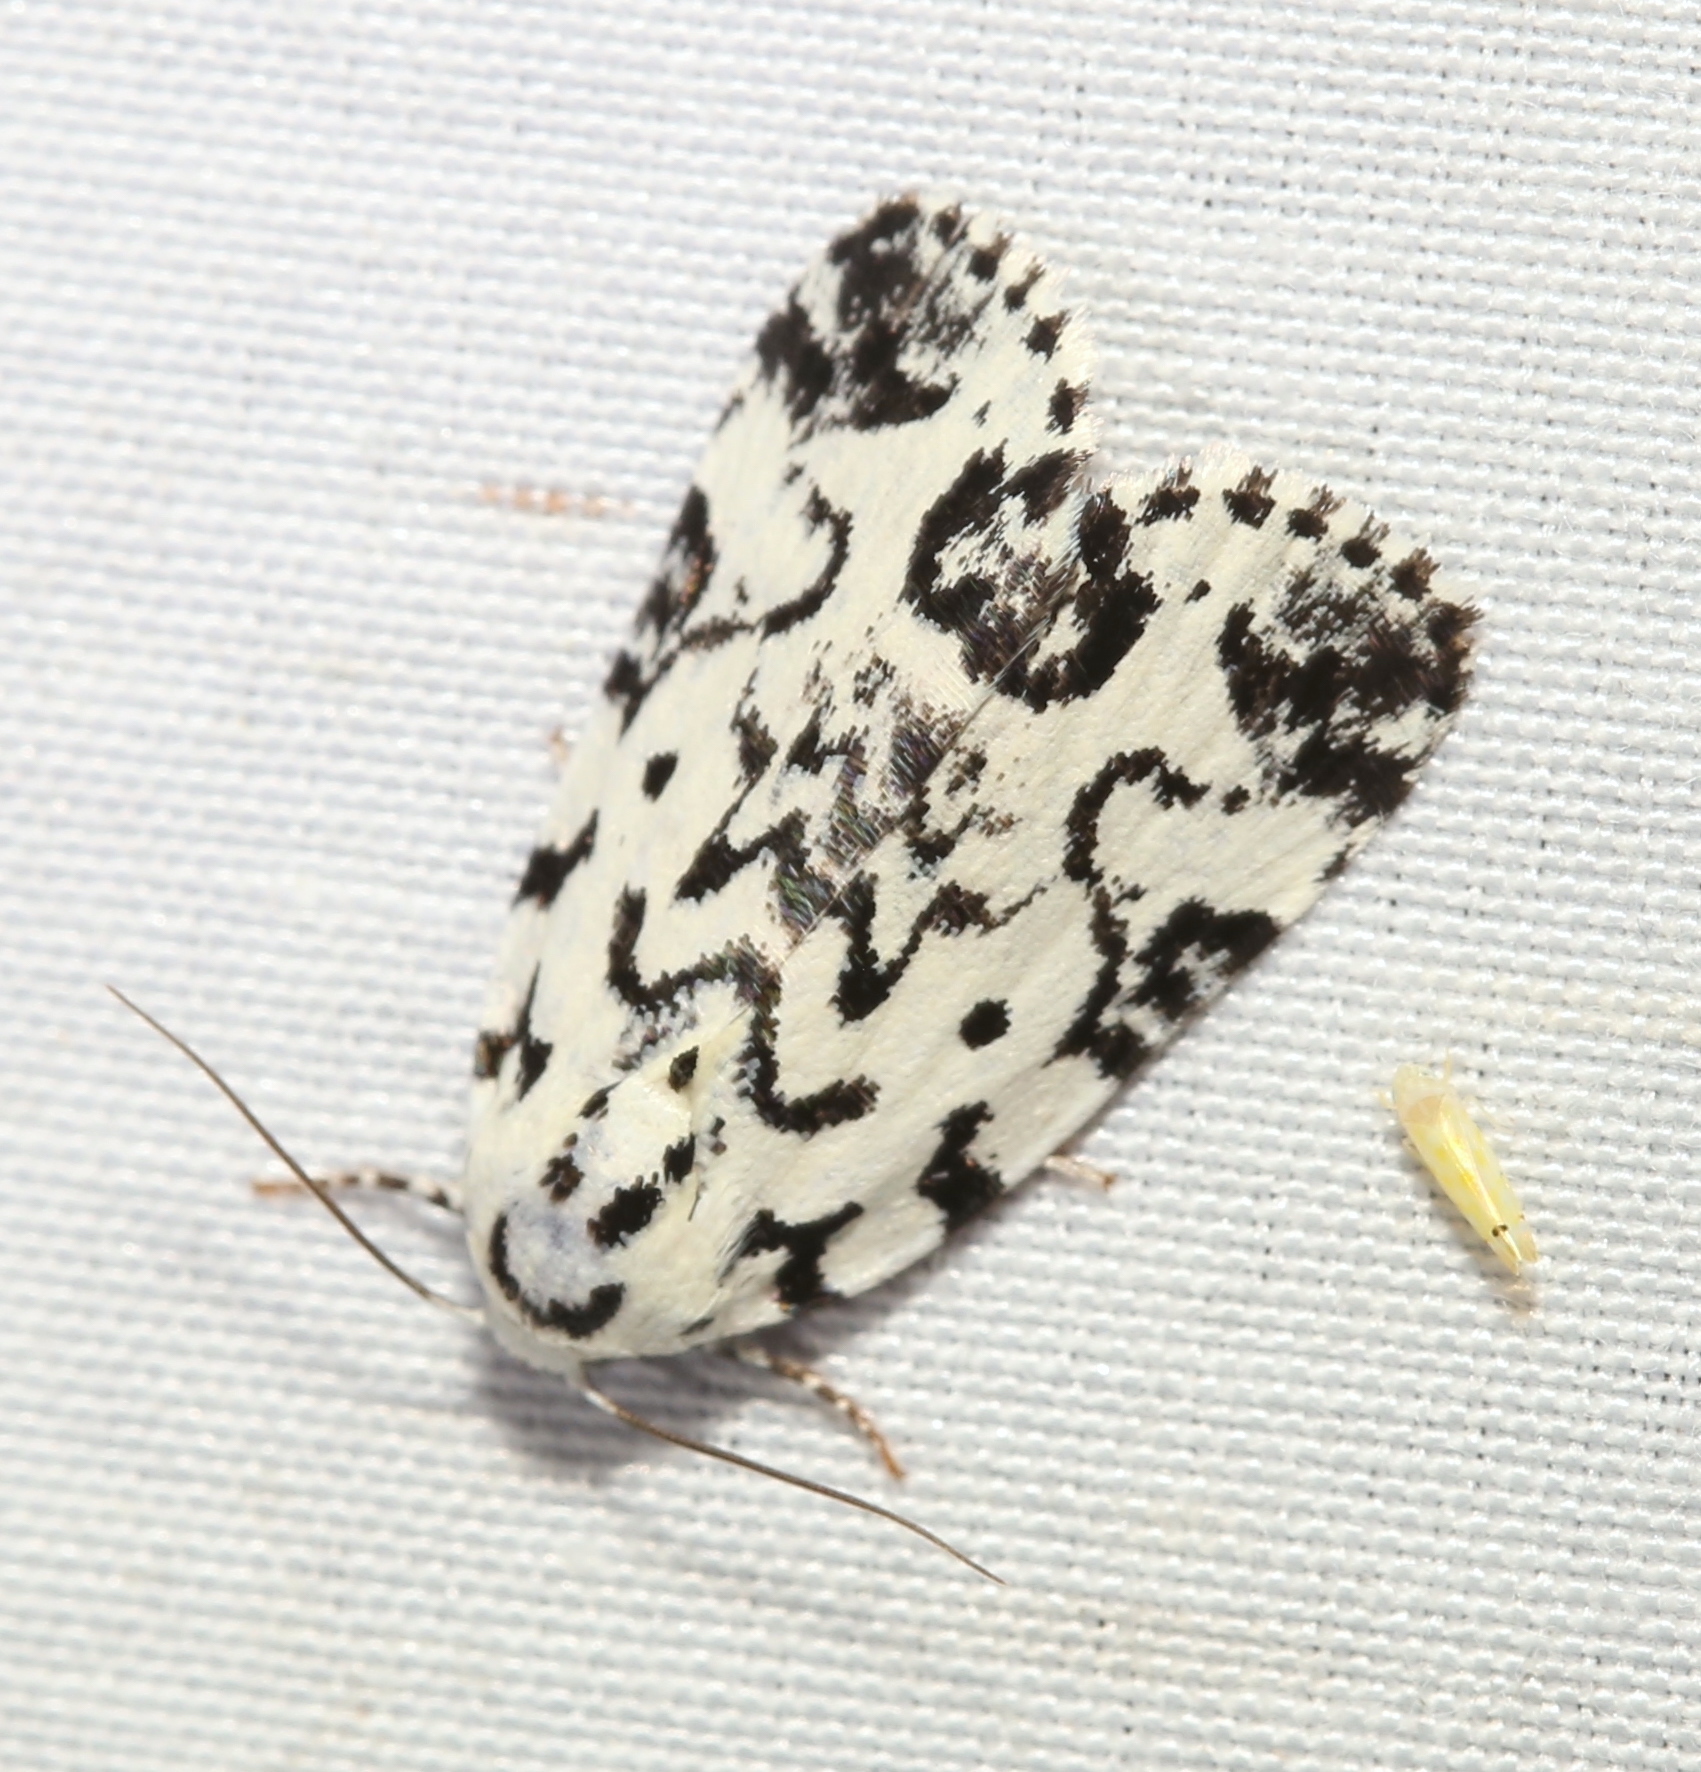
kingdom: Animalia
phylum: Arthropoda
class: Insecta
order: Lepidoptera
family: Noctuidae
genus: Polygrammate
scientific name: Polygrammate hebraeicum
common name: Hebrew moth
